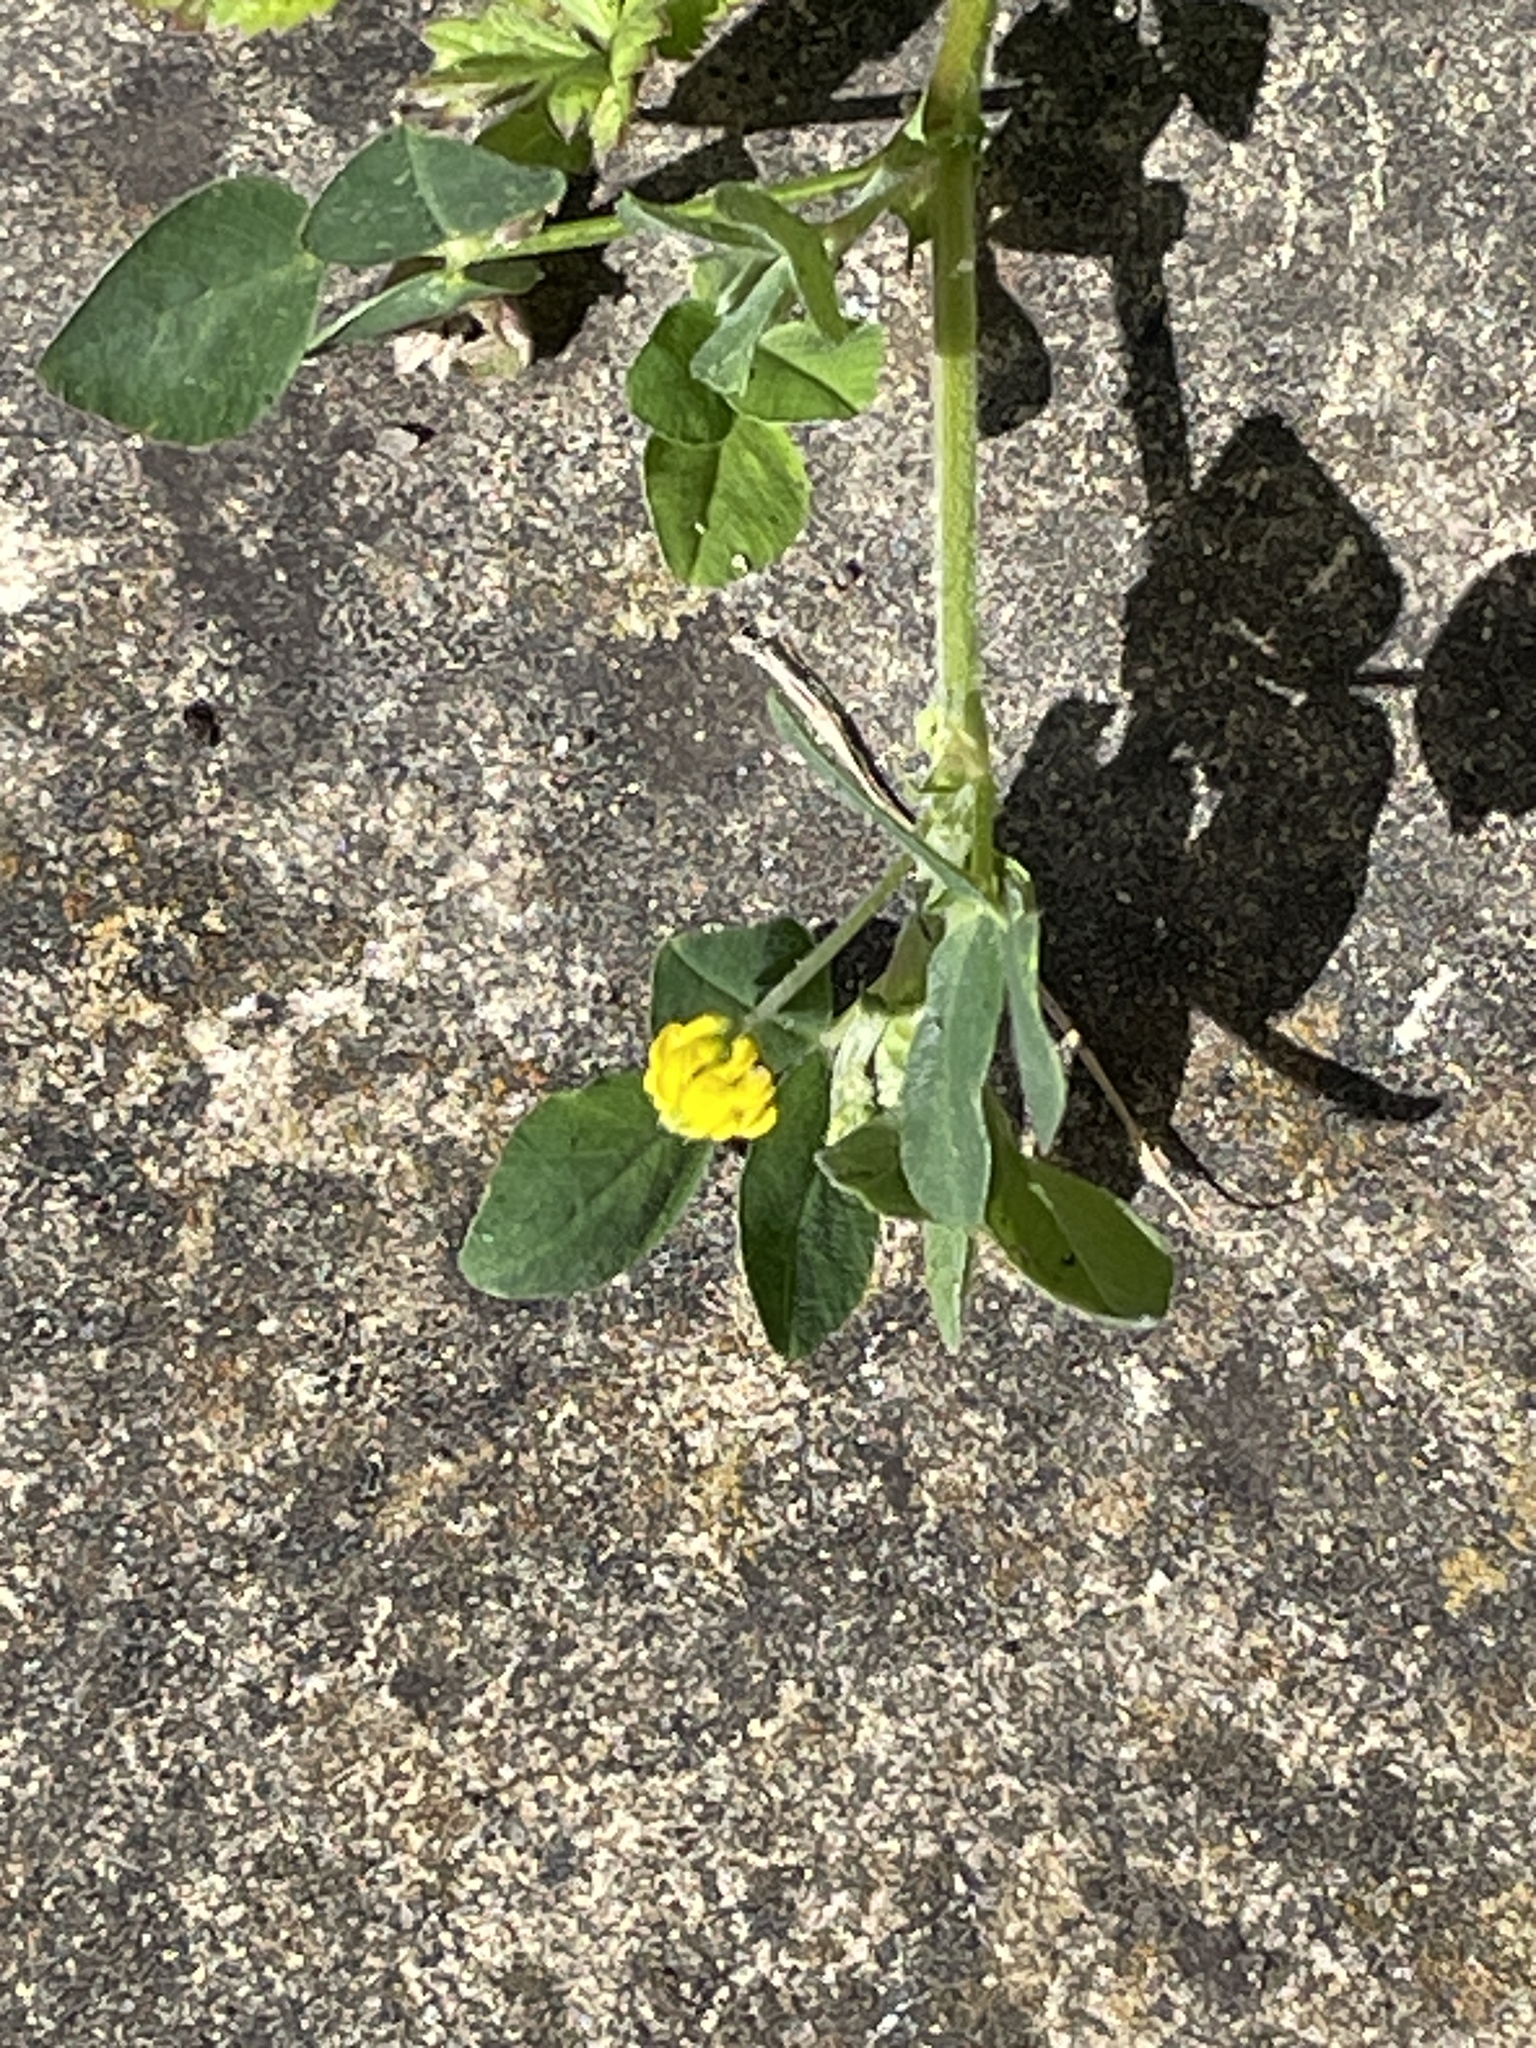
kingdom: Plantae
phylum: Tracheophyta
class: Magnoliopsida
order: Fabales
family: Fabaceae
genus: Medicago
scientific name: Medicago lupulina
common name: Black medick
